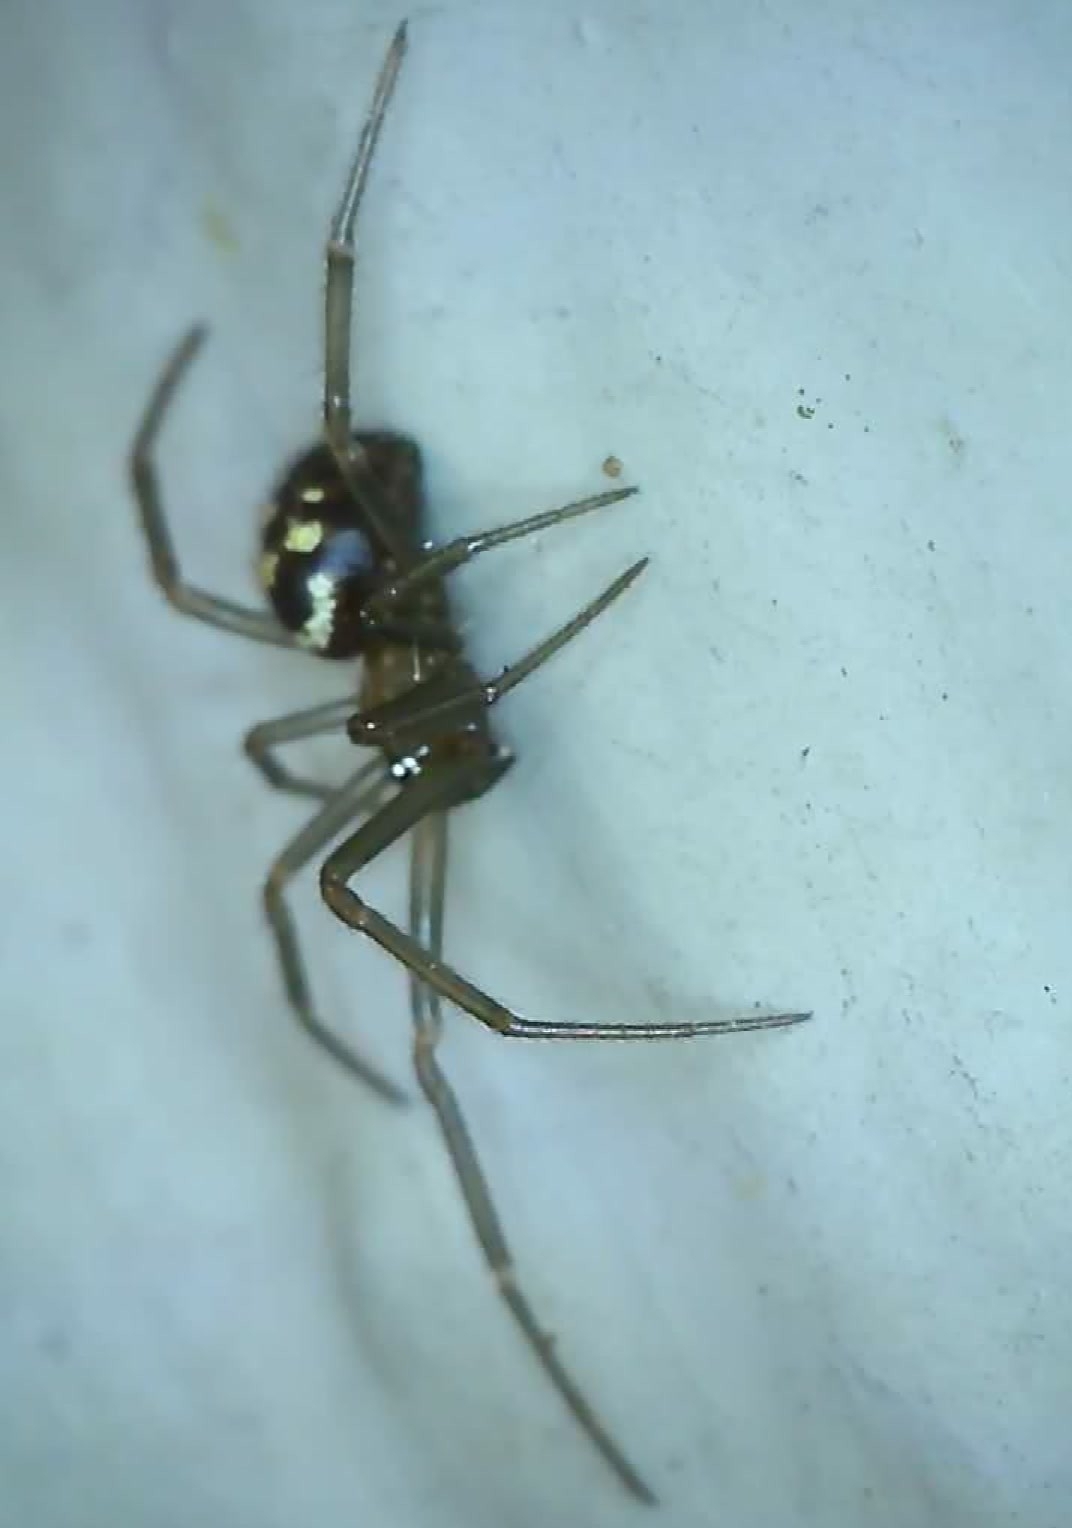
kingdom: Animalia
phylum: Arthropoda
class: Arachnida
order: Araneae
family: Theridiidae
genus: Steatoda
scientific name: Steatoda grossa
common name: False black widow
